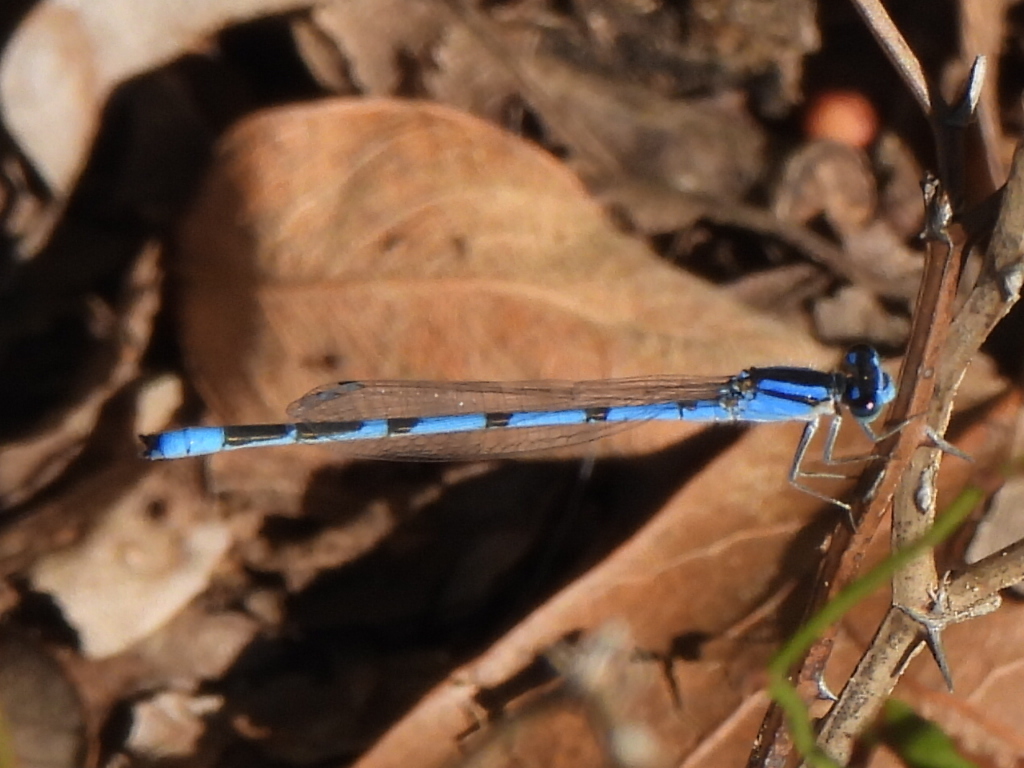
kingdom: Animalia
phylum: Arthropoda
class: Insecta
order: Odonata
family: Coenagrionidae
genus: Enallagma
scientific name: Enallagma civile
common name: Damselfly
